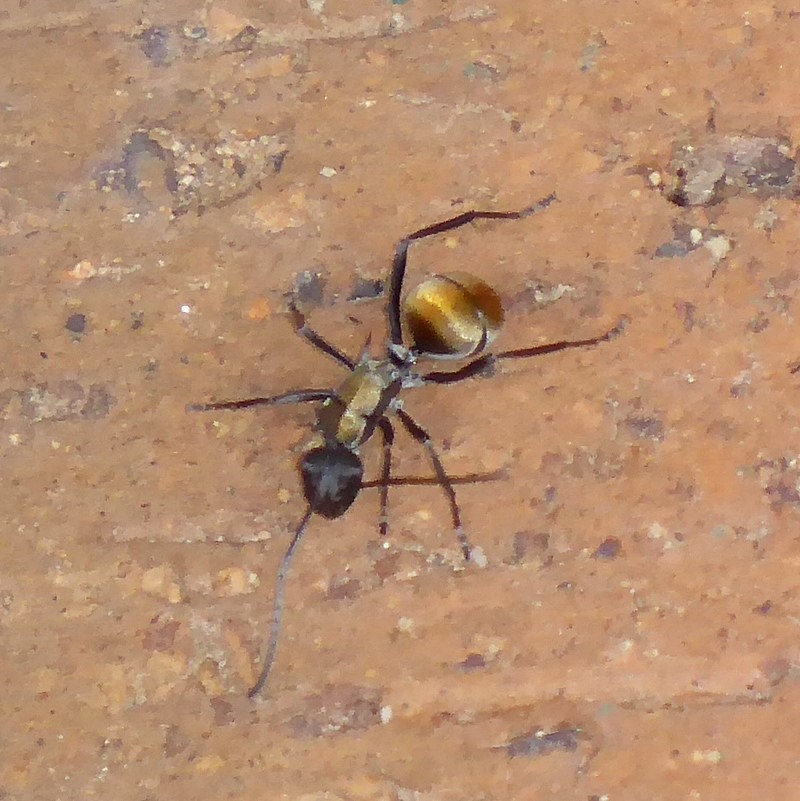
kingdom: Animalia
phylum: Arthropoda
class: Insecta
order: Hymenoptera
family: Formicidae
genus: Polyrhachis
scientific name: Polyrhachis ammon
